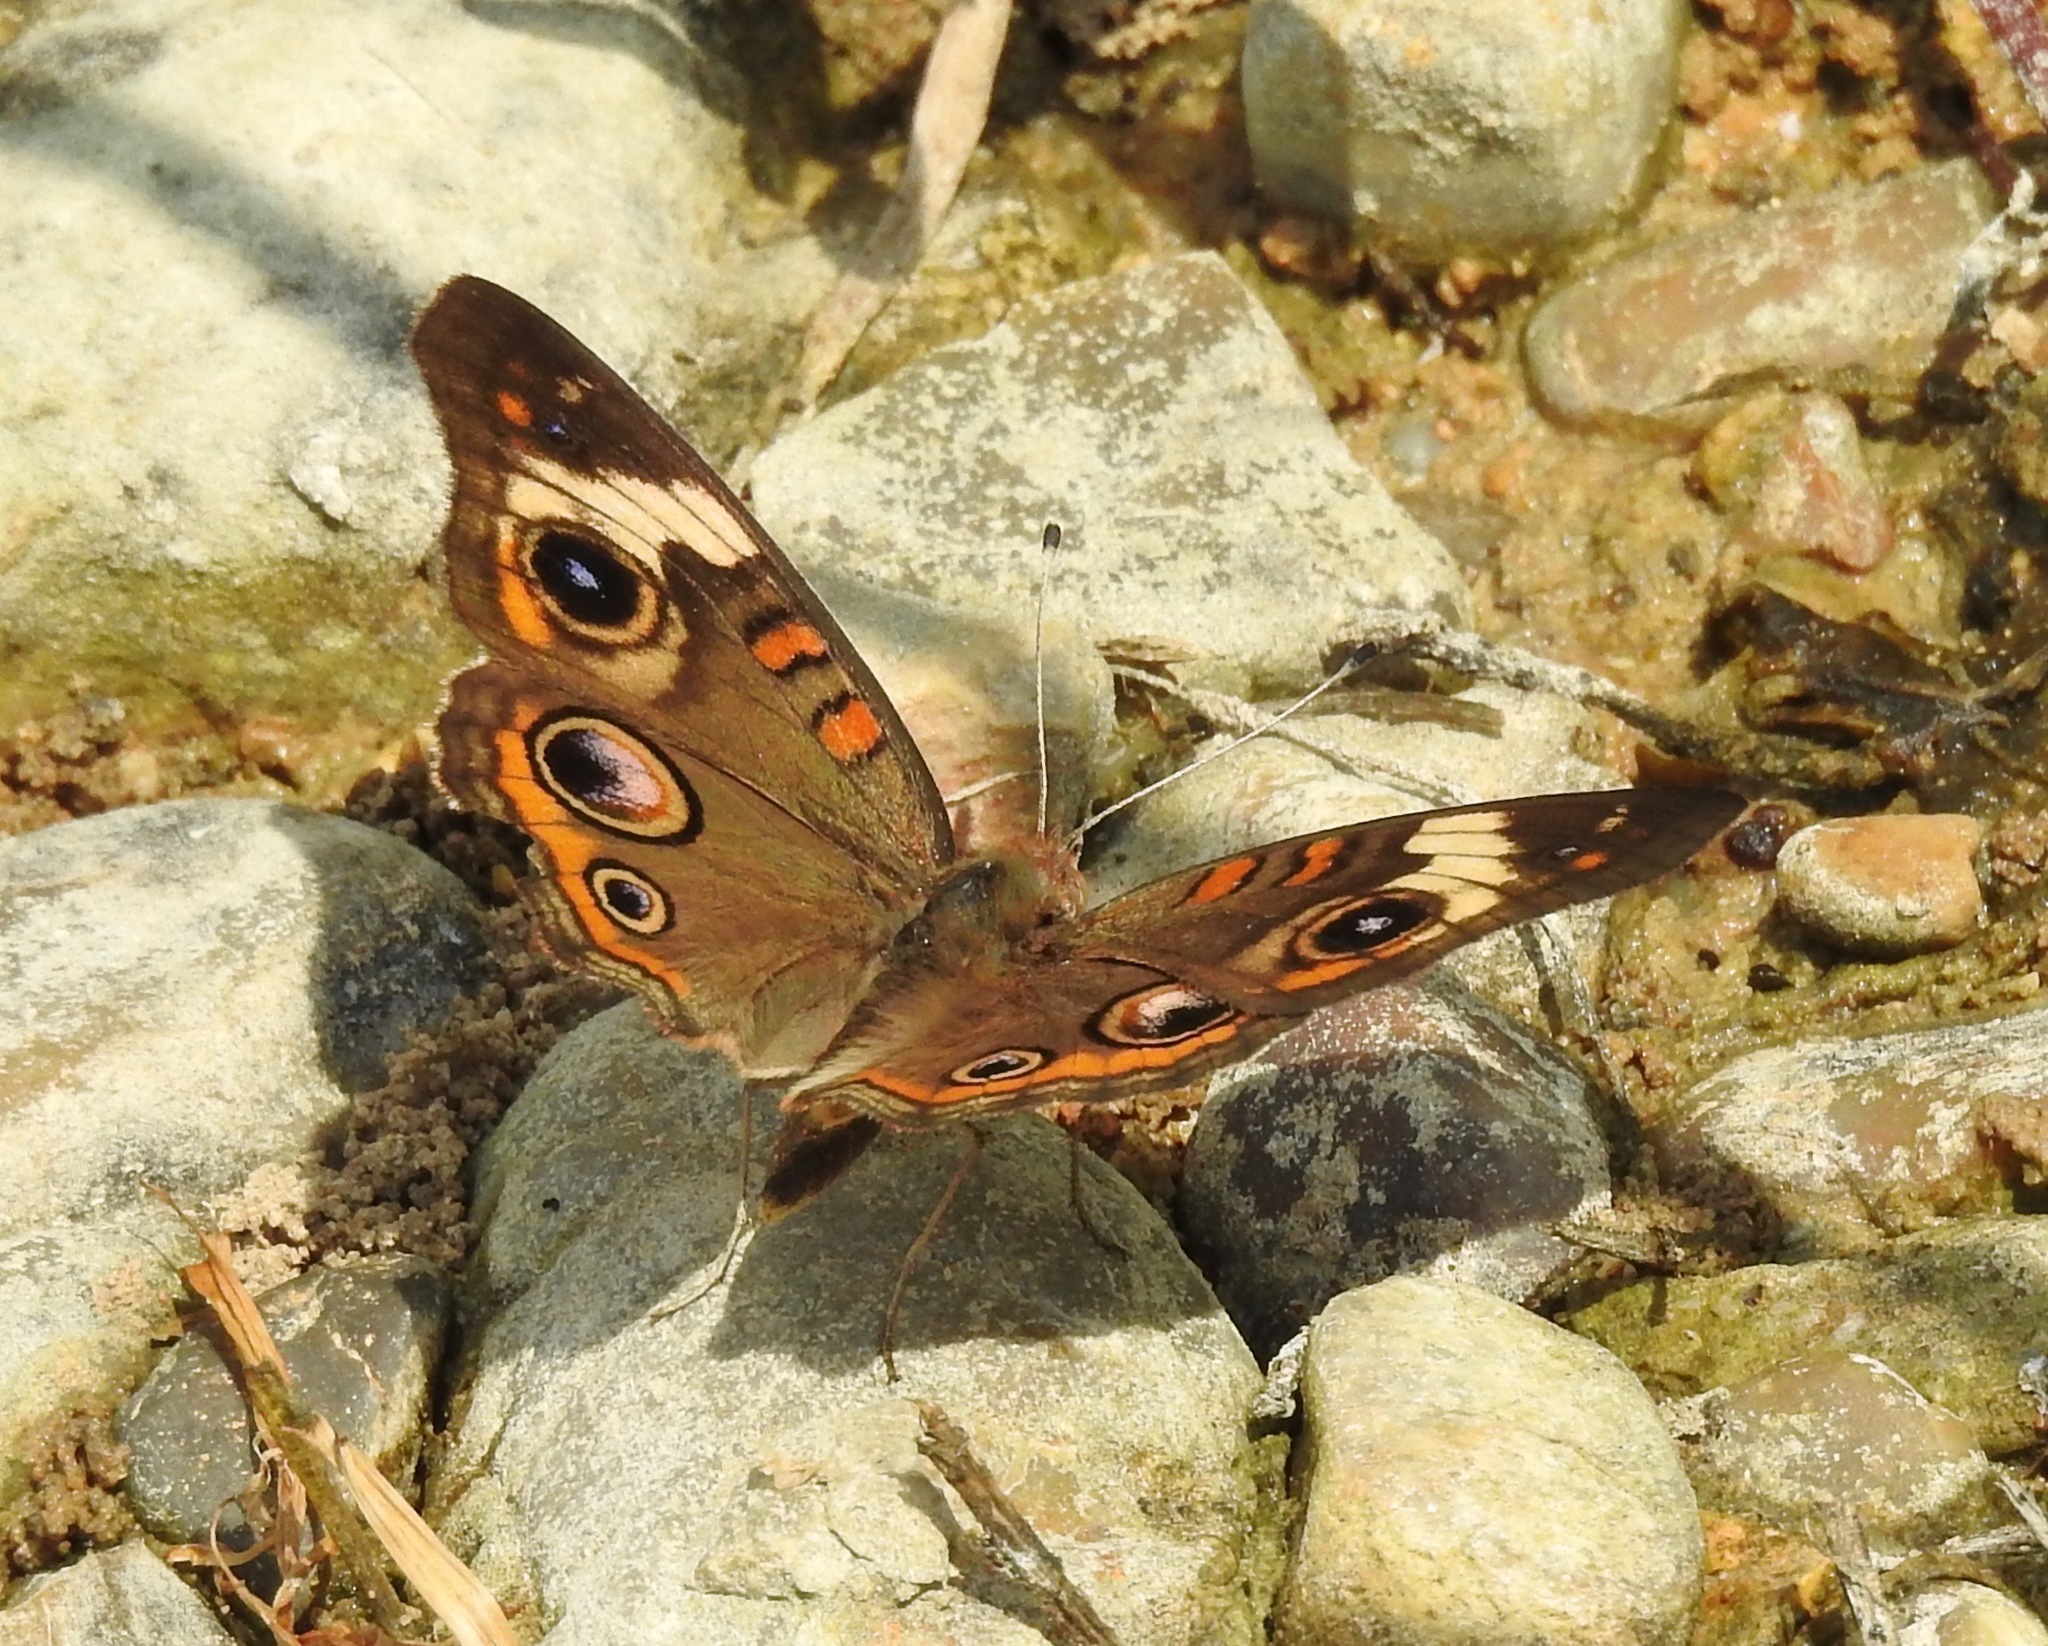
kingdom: Animalia
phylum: Arthropoda
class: Insecta
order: Lepidoptera
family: Nymphalidae
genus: Junonia
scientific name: Junonia coenia
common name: Common buckeye
